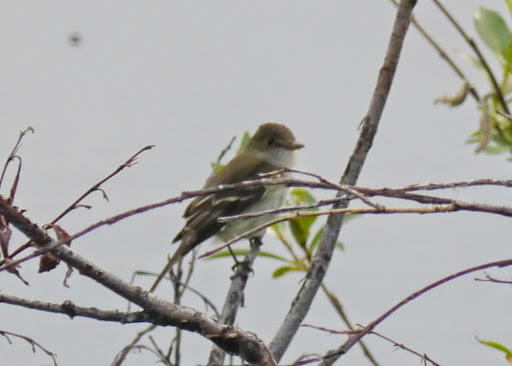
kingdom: Animalia
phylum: Chordata
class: Aves
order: Passeriformes
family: Tyrannidae
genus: Empidonax
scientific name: Empidonax alnorum
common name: Alder flycatcher
